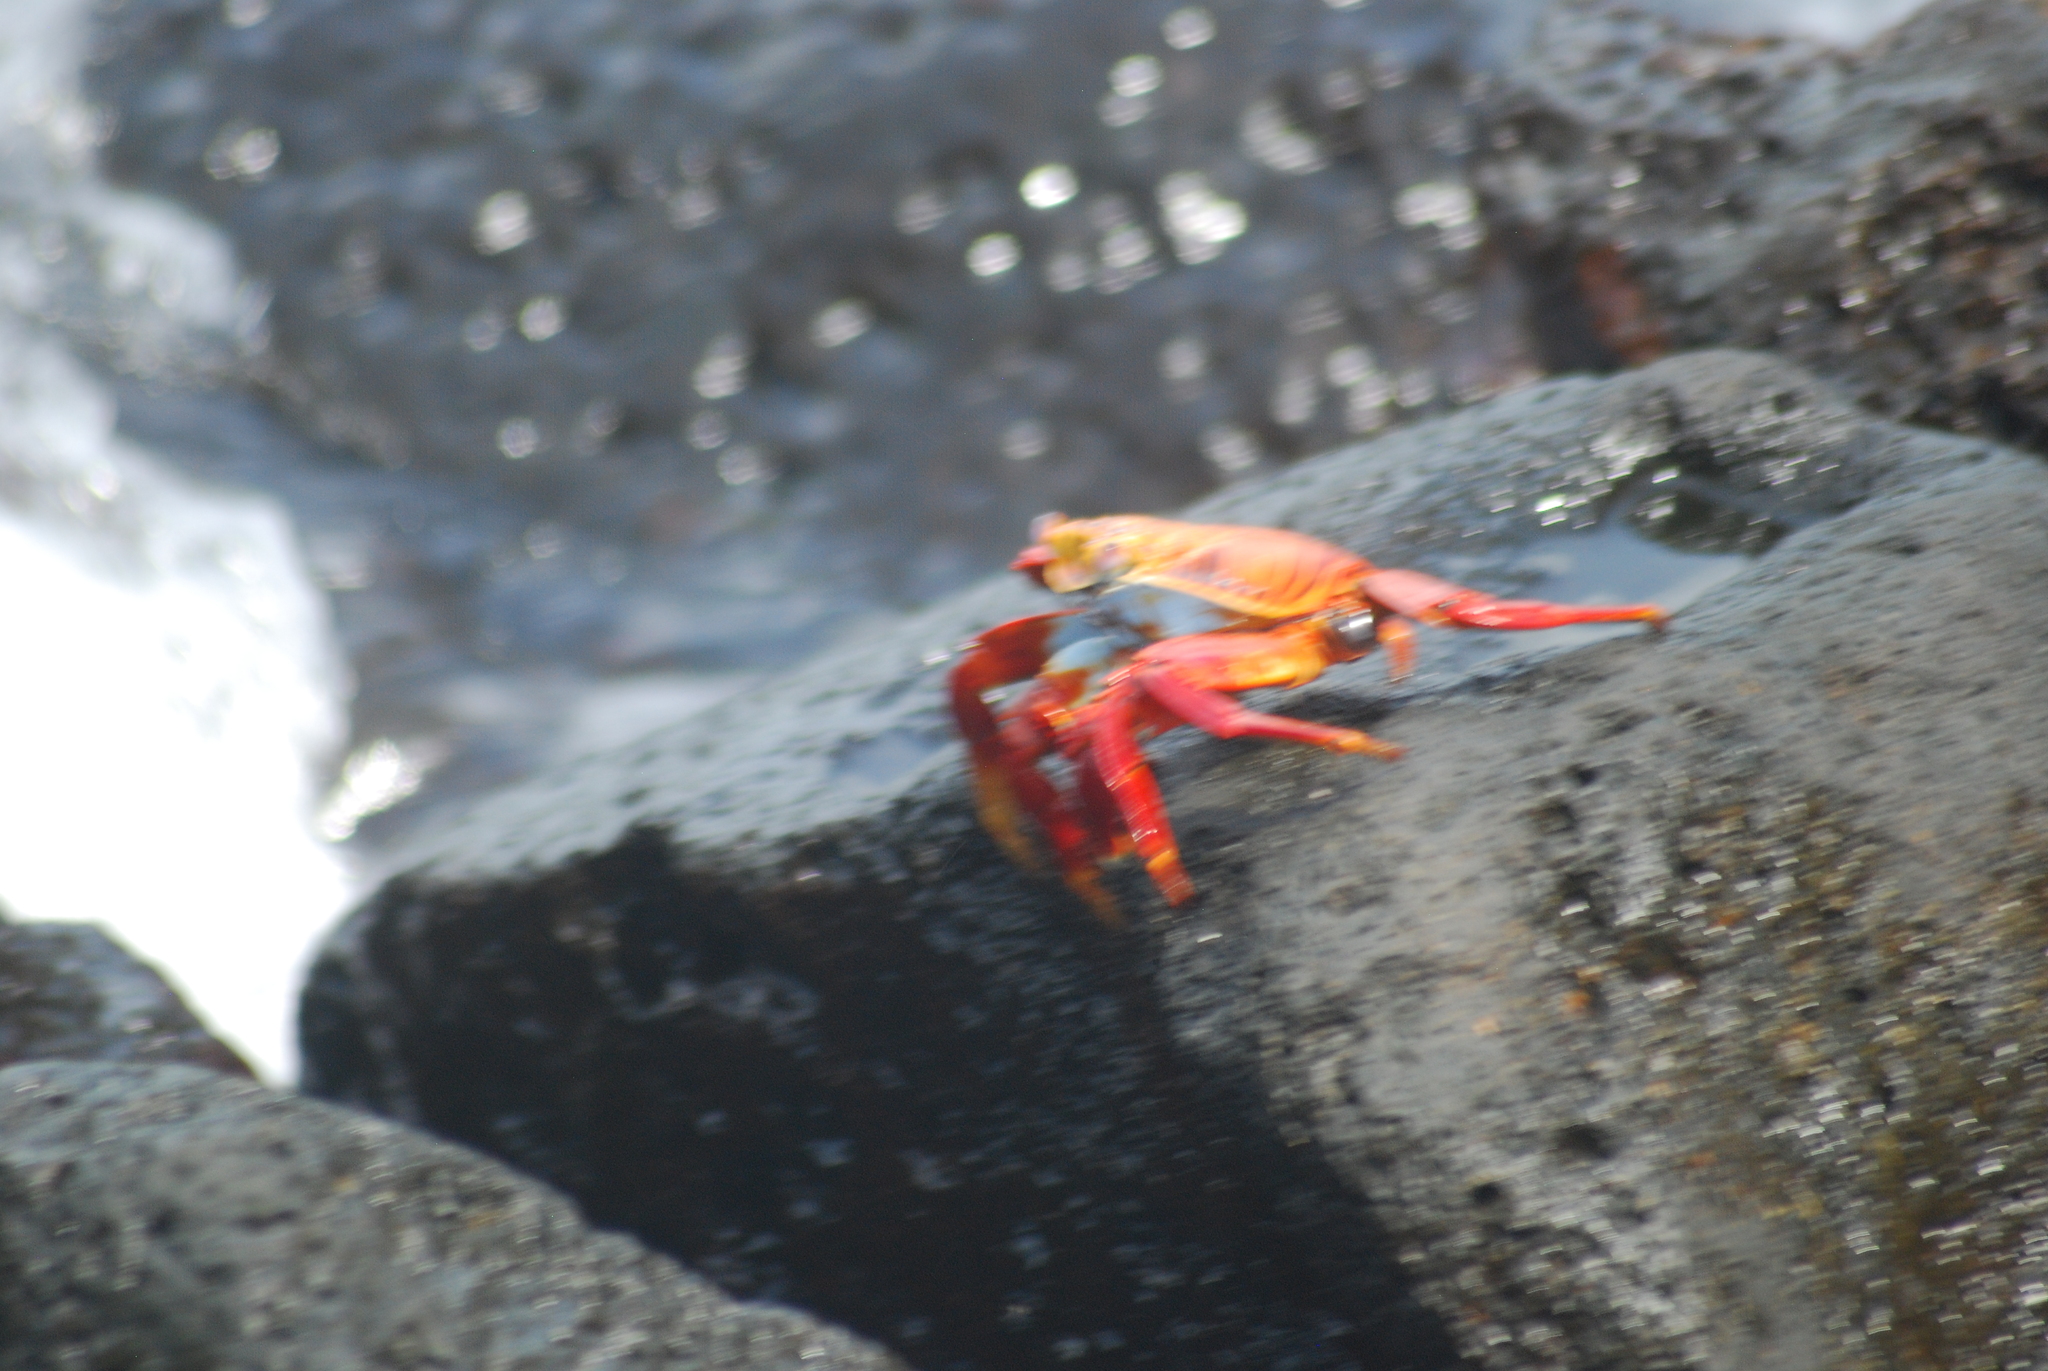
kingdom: Animalia
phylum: Arthropoda
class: Malacostraca
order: Decapoda
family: Grapsidae
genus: Grapsus
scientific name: Grapsus grapsus
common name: Sally lightfoot
